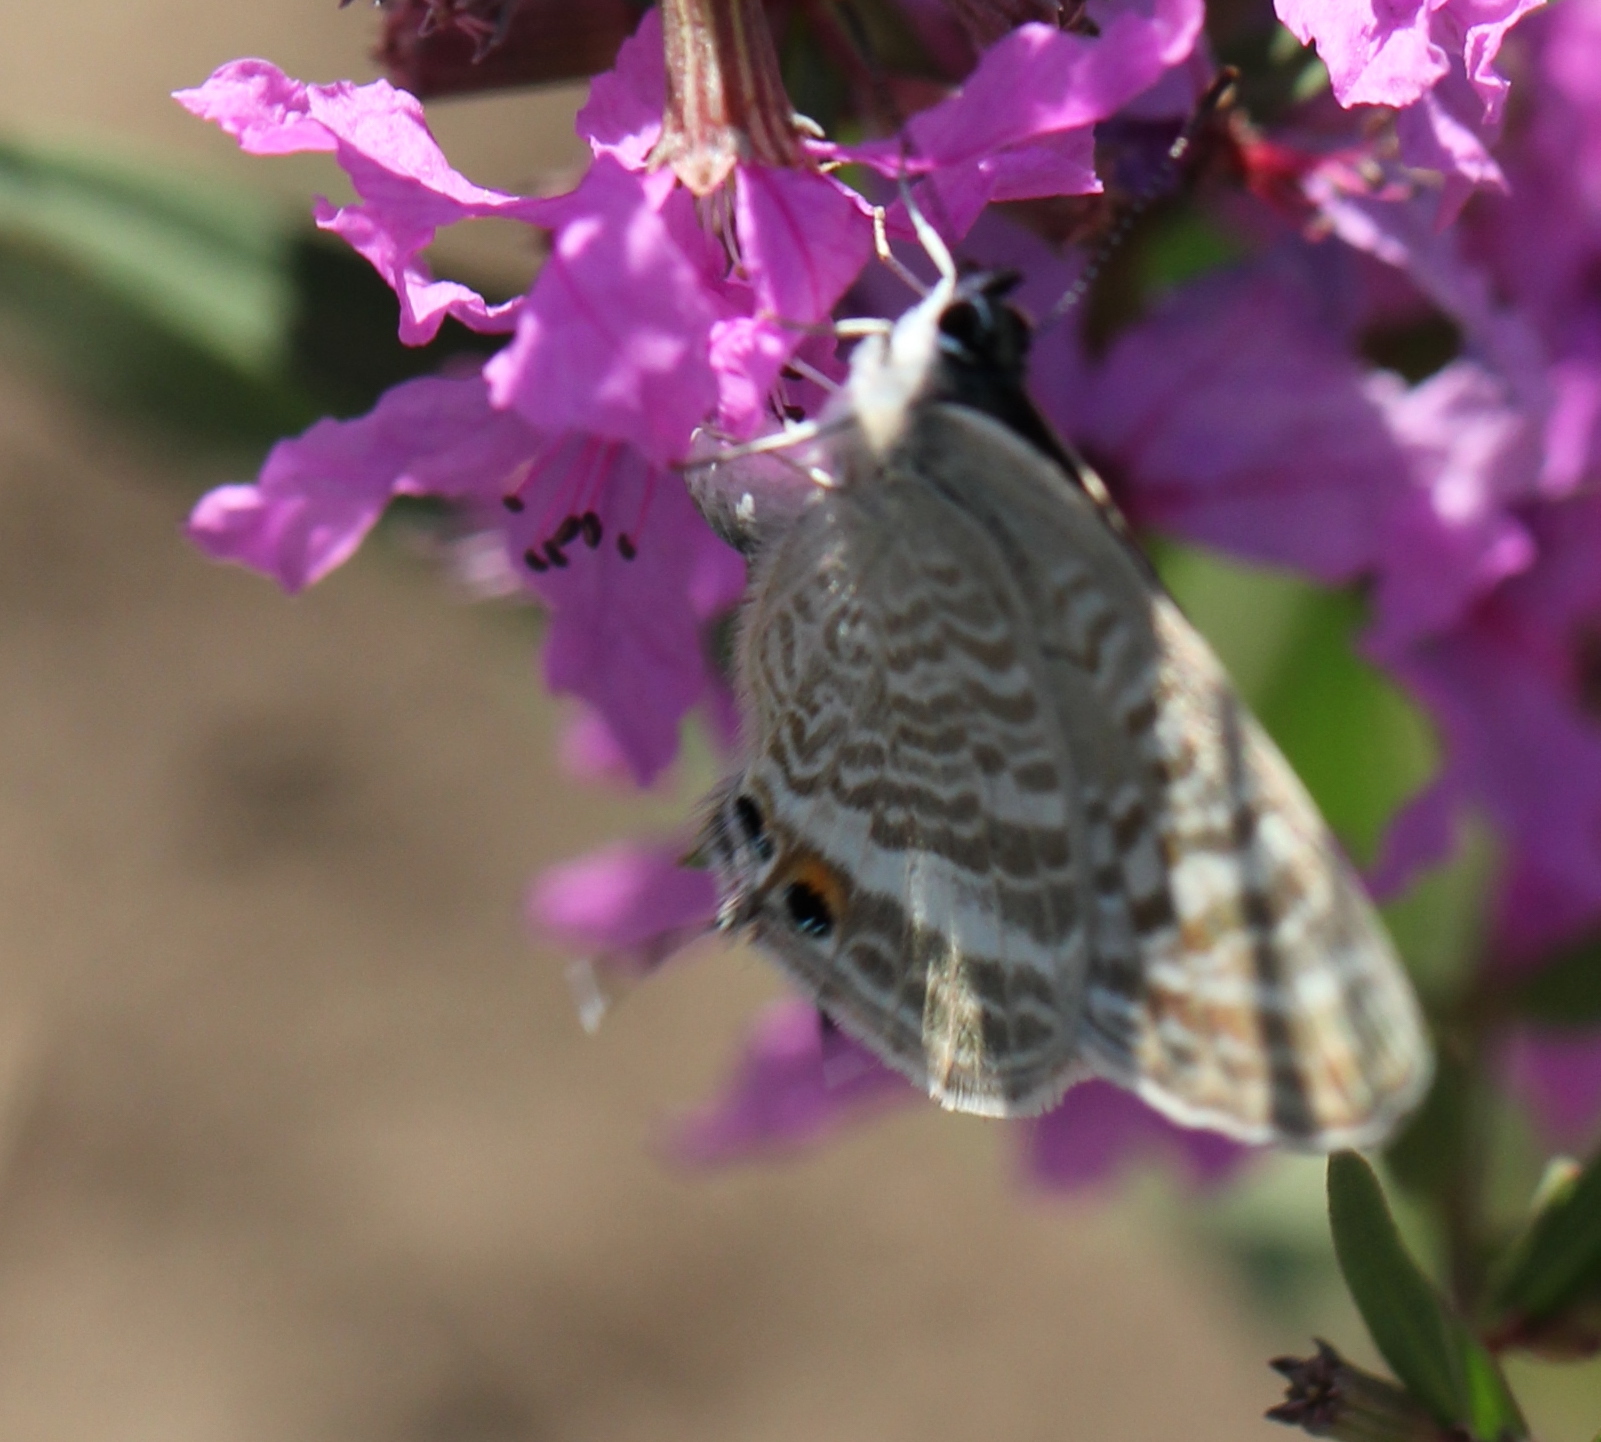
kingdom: Animalia
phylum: Arthropoda
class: Insecta
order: Lepidoptera
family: Lycaenidae
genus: Lampides
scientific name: Lampides boeticus
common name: Long-tailed blue
